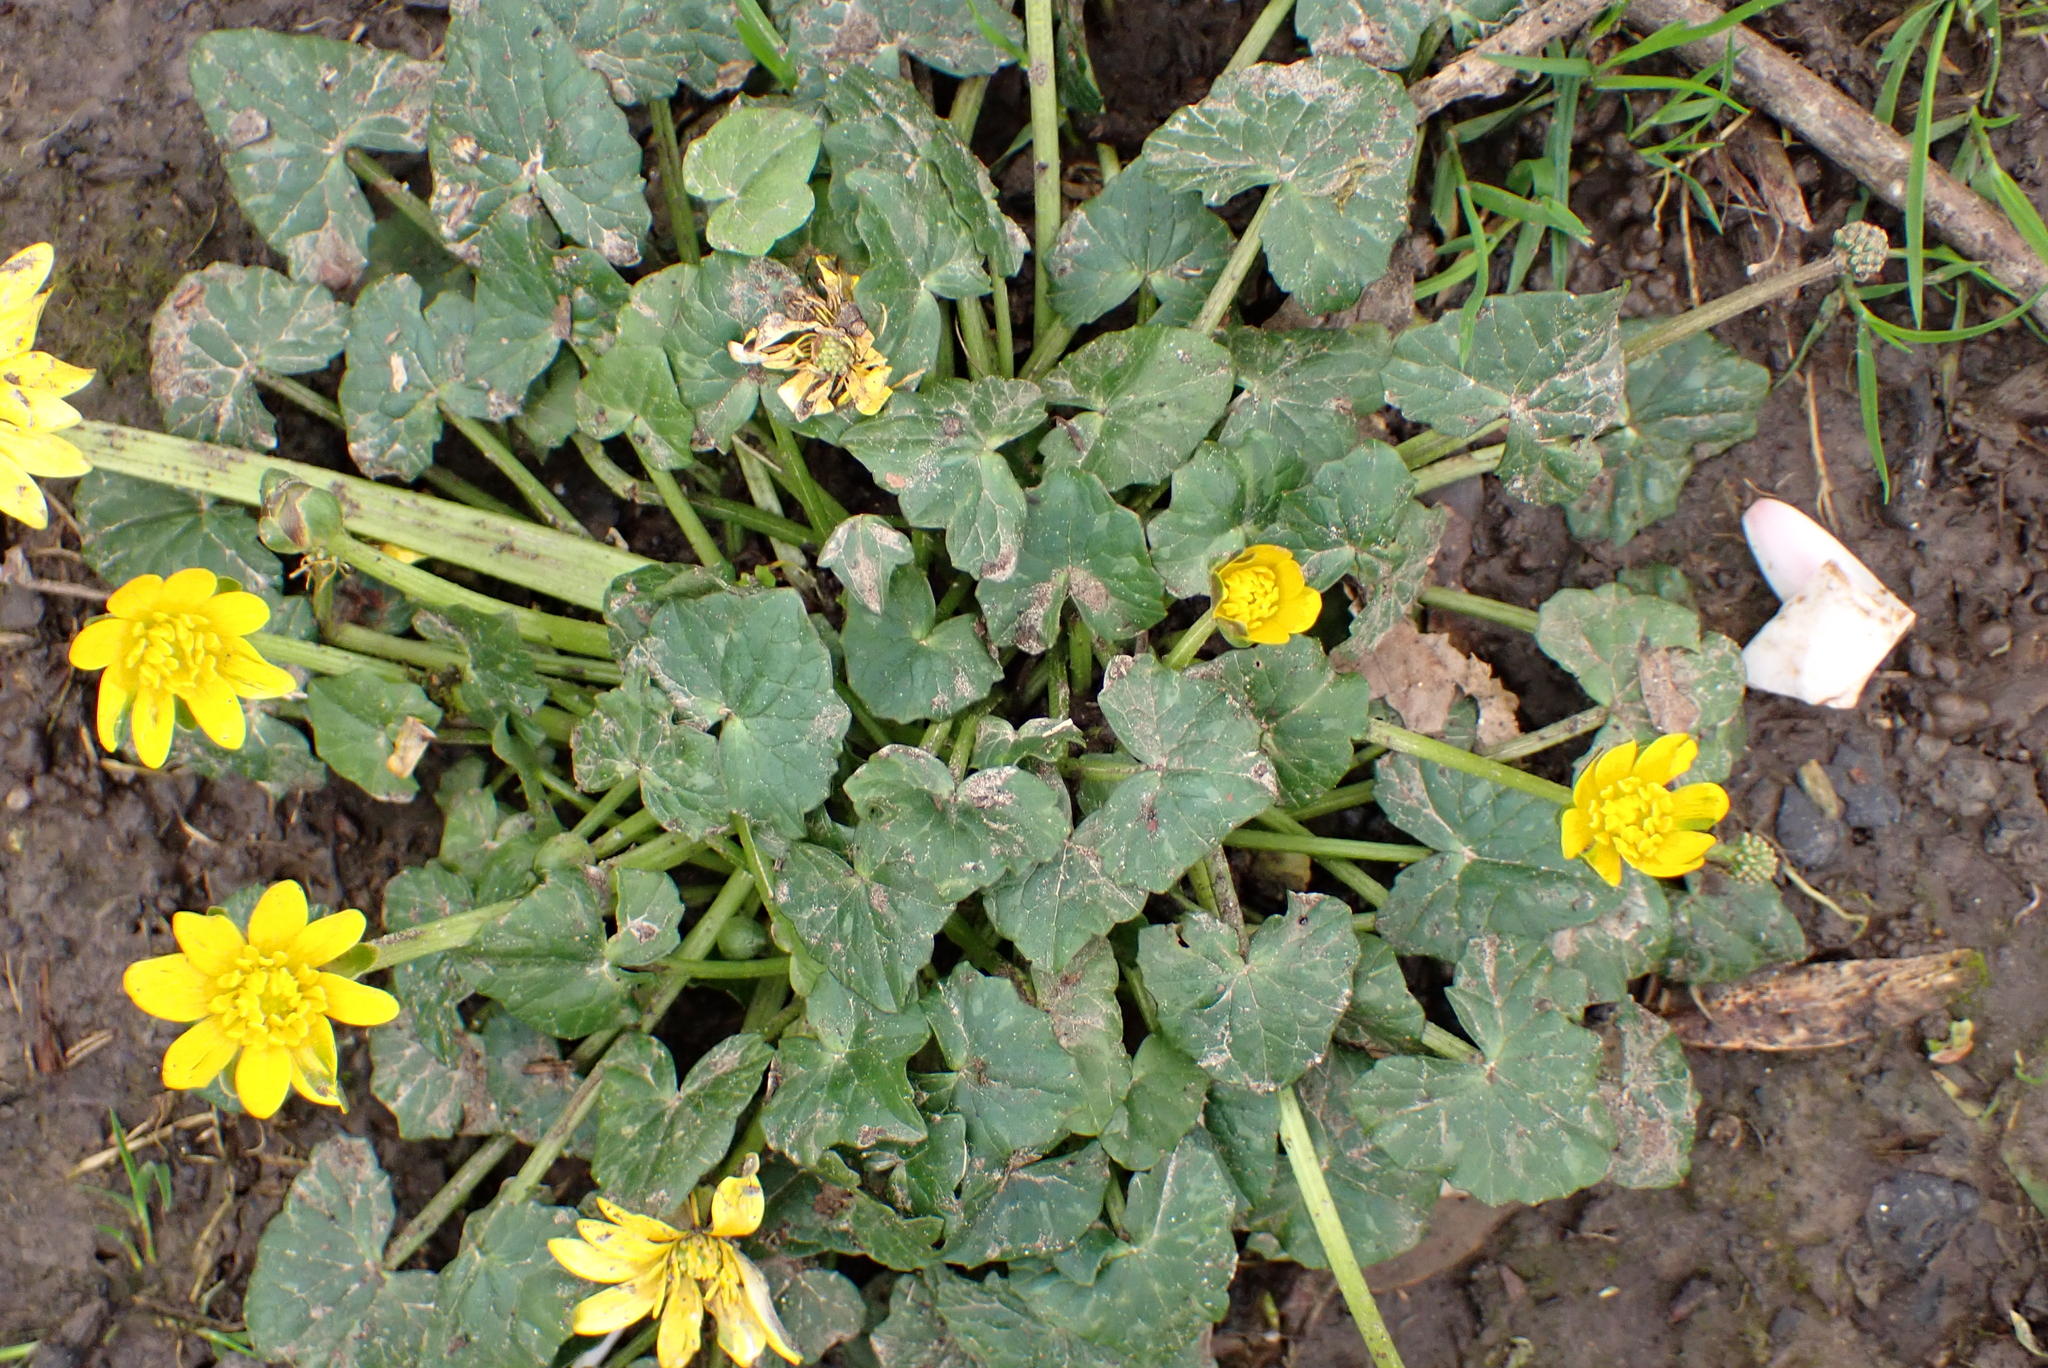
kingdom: Plantae
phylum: Tracheophyta
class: Magnoliopsida
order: Ranunculales
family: Ranunculaceae
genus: Ficaria
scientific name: Ficaria verna
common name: Lesser celandine
